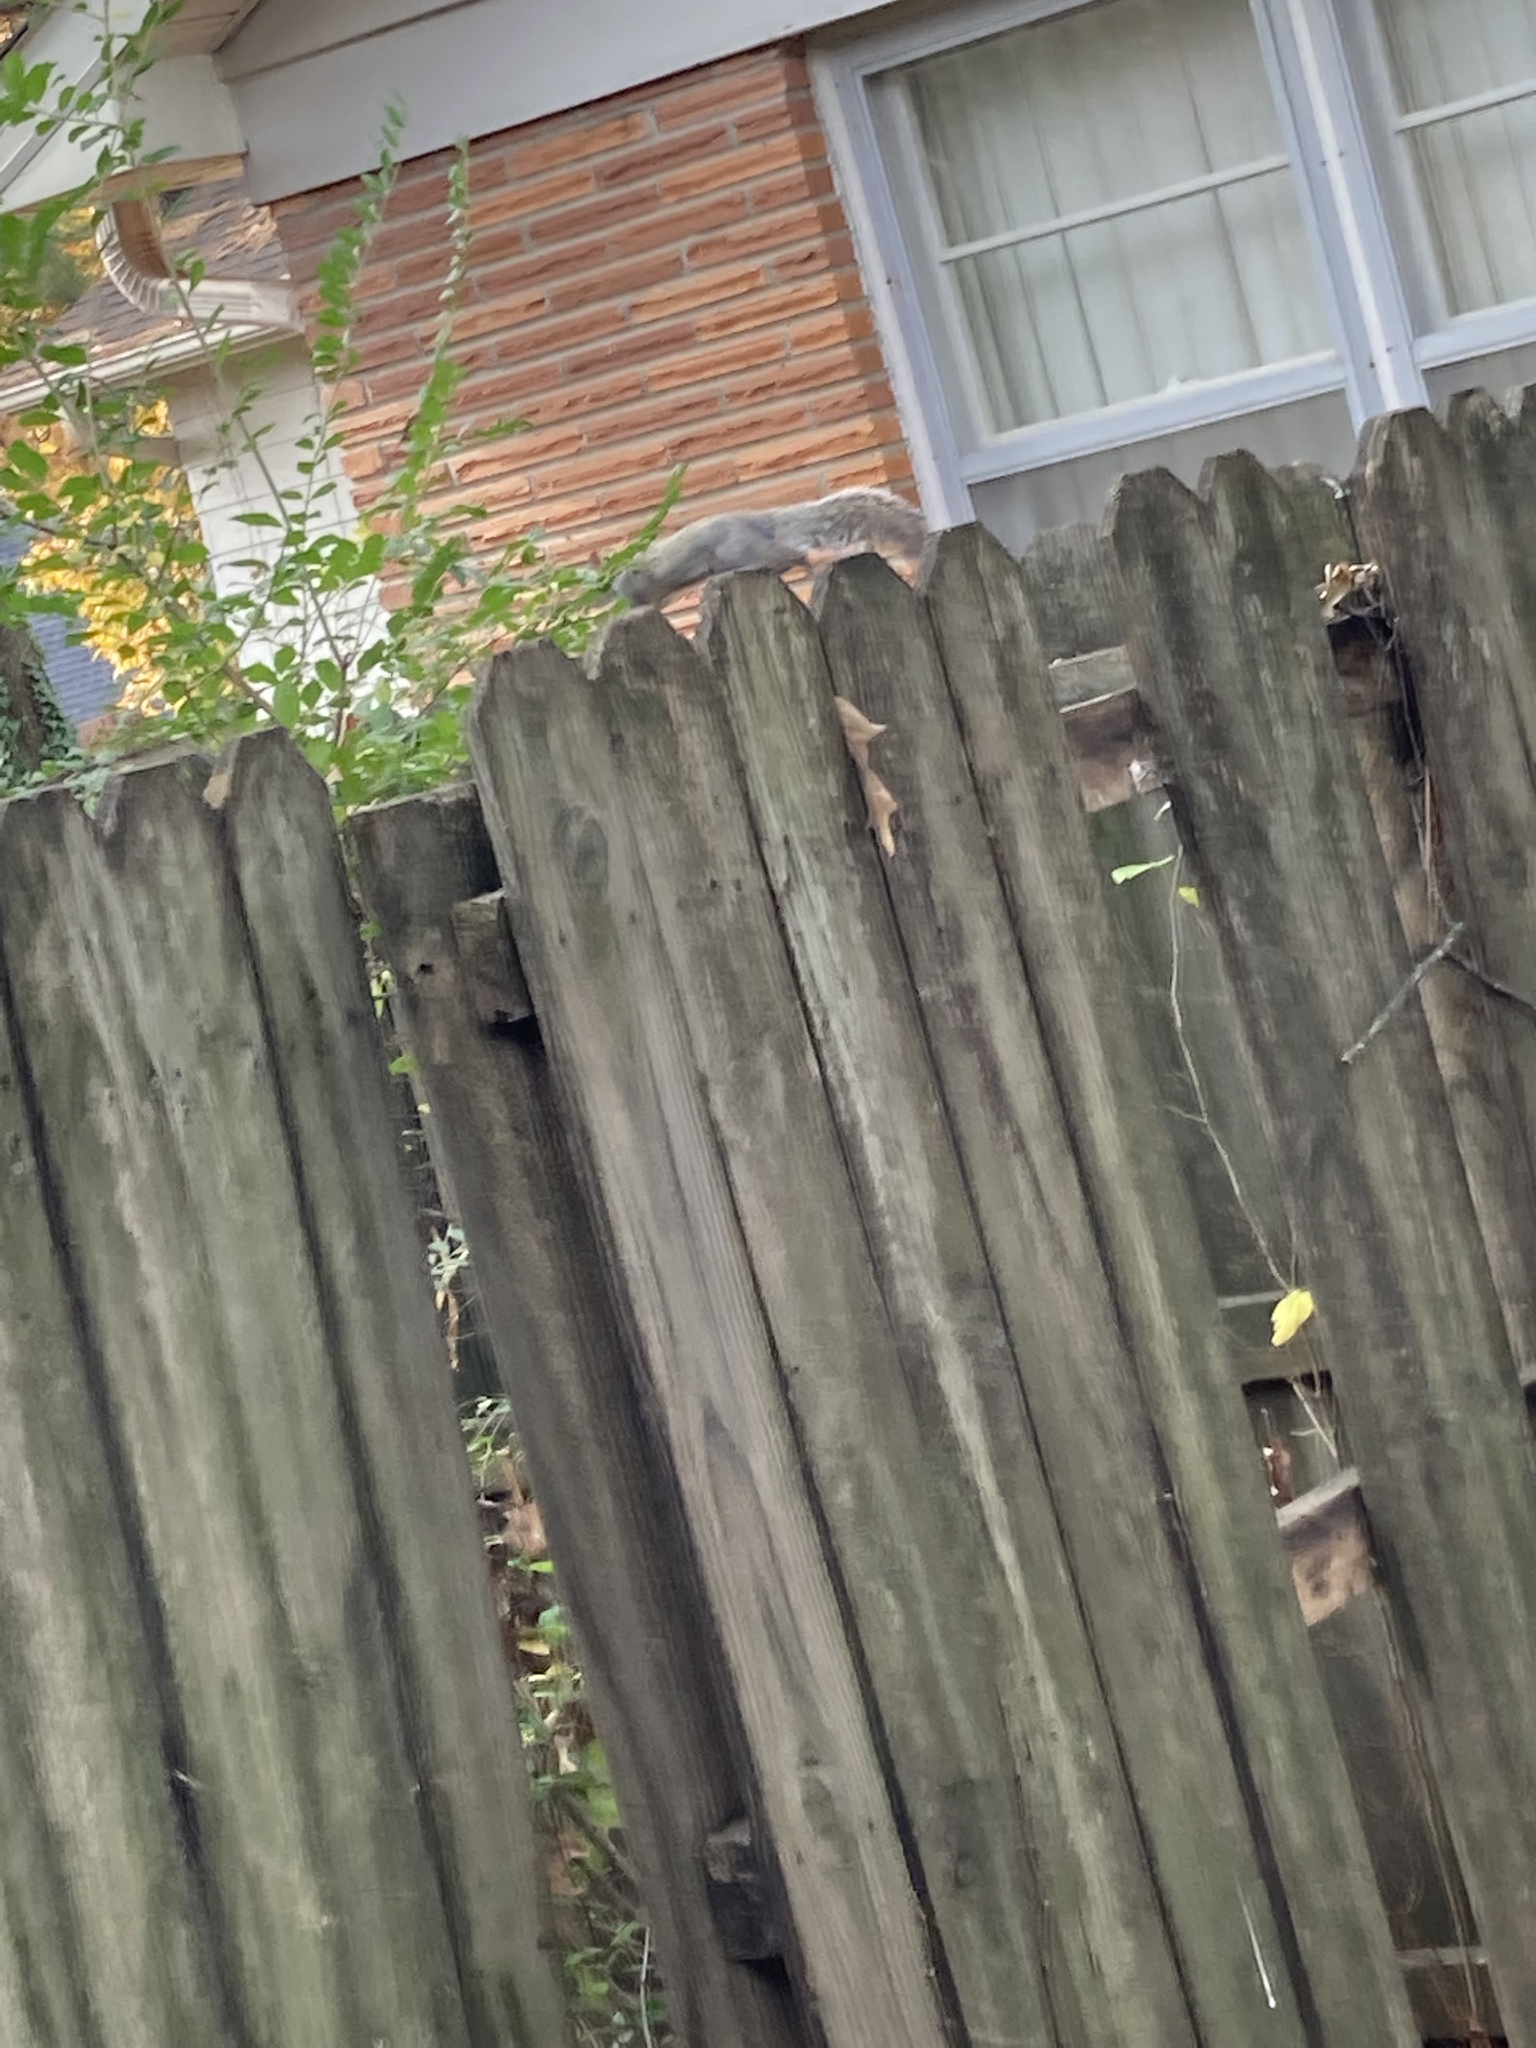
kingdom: Animalia
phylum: Chordata
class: Mammalia
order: Rodentia
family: Sciuridae
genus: Sciurus
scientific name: Sciurus carolinensis
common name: Eastern gray squirrel
